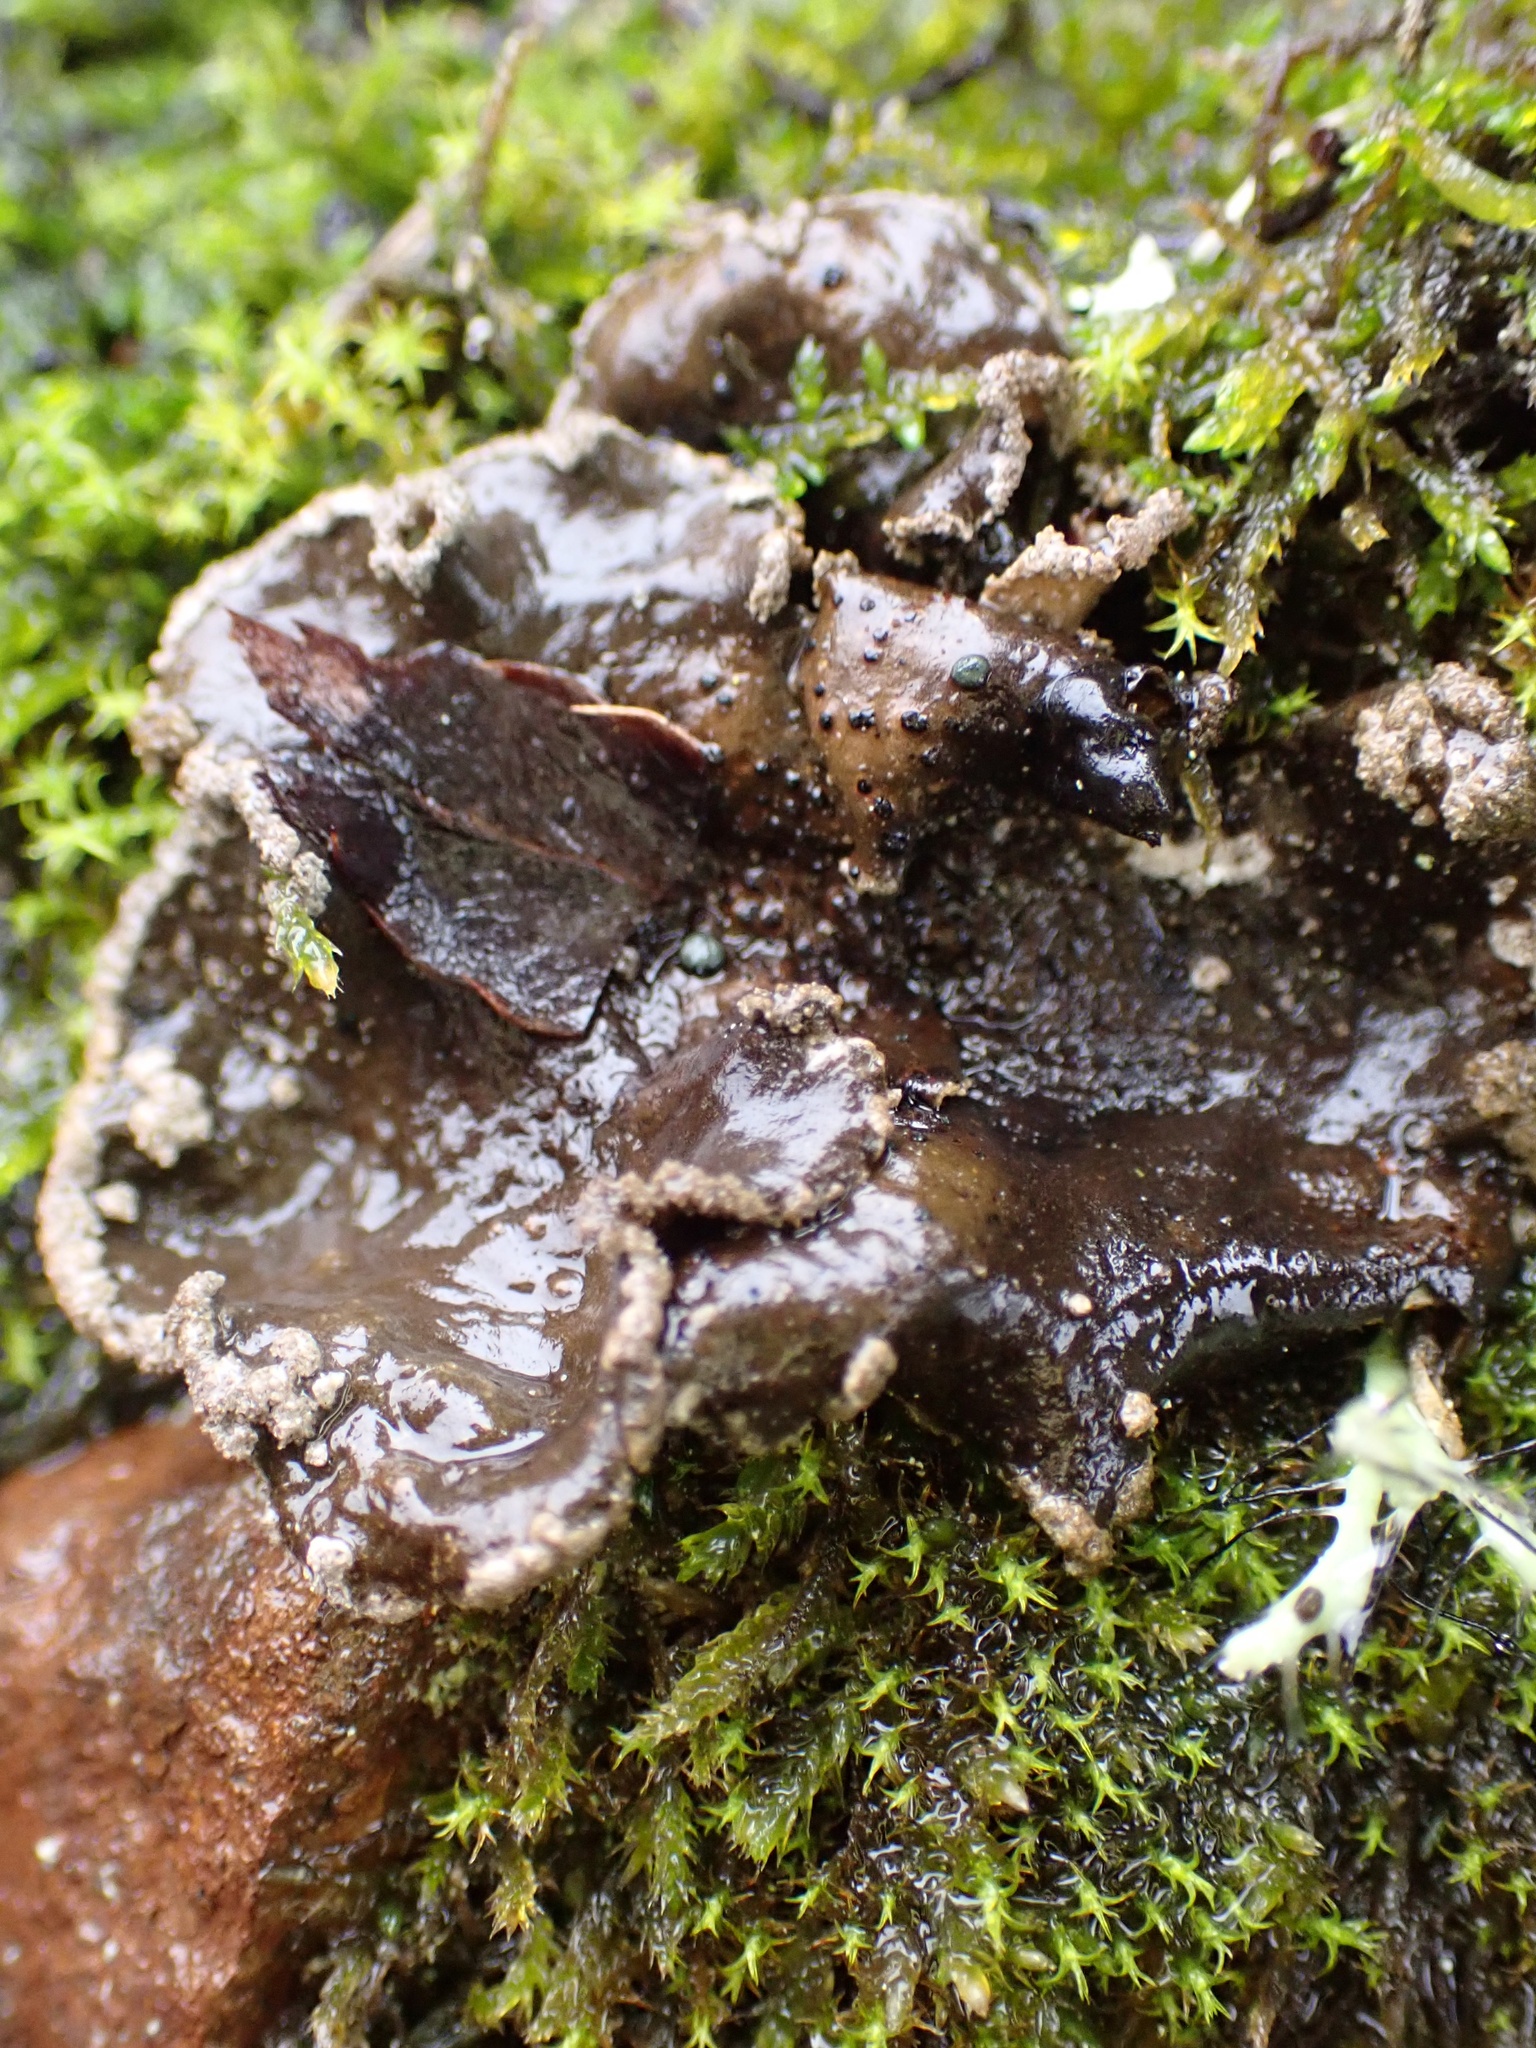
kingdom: Fungi
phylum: Ascomycota
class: Lecanoromycetes
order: Peltigerales
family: Lobariaceae
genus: Sticta
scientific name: Sticta limbata
